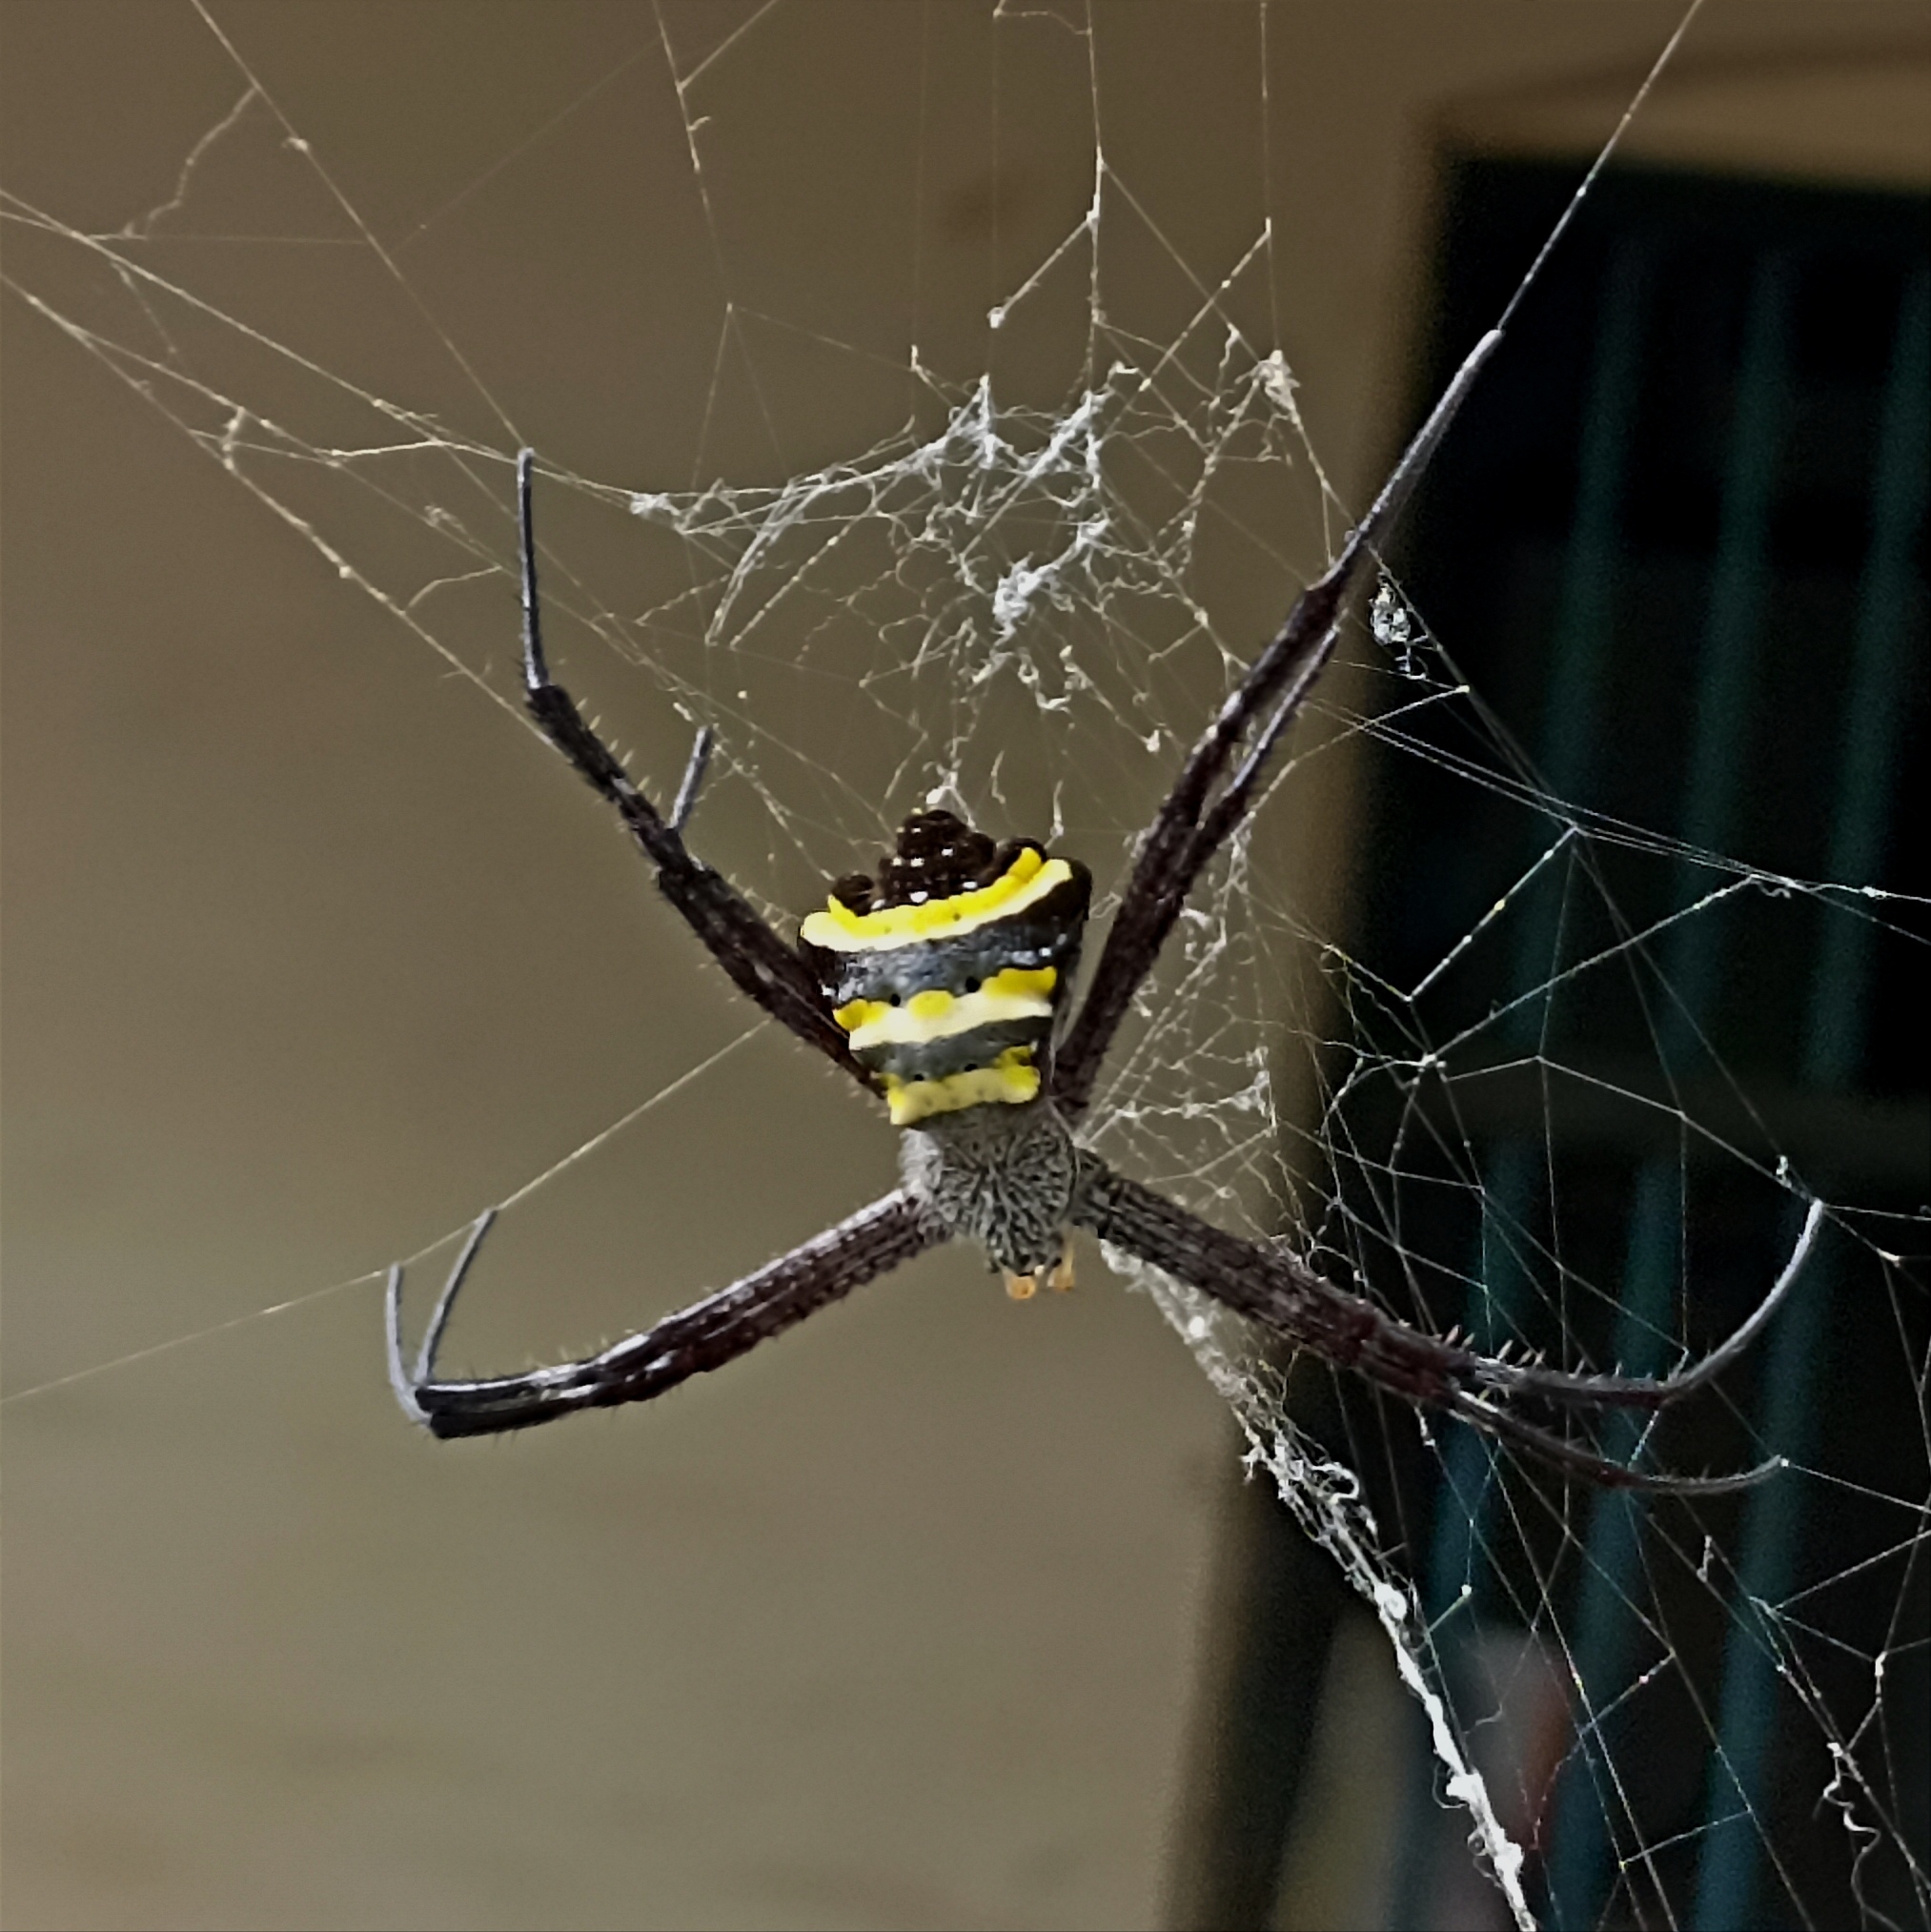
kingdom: Animalia
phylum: Arthropoda
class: Arachnida
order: Araneae
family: Araneidae
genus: Argiope
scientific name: Argiope taprobanica
